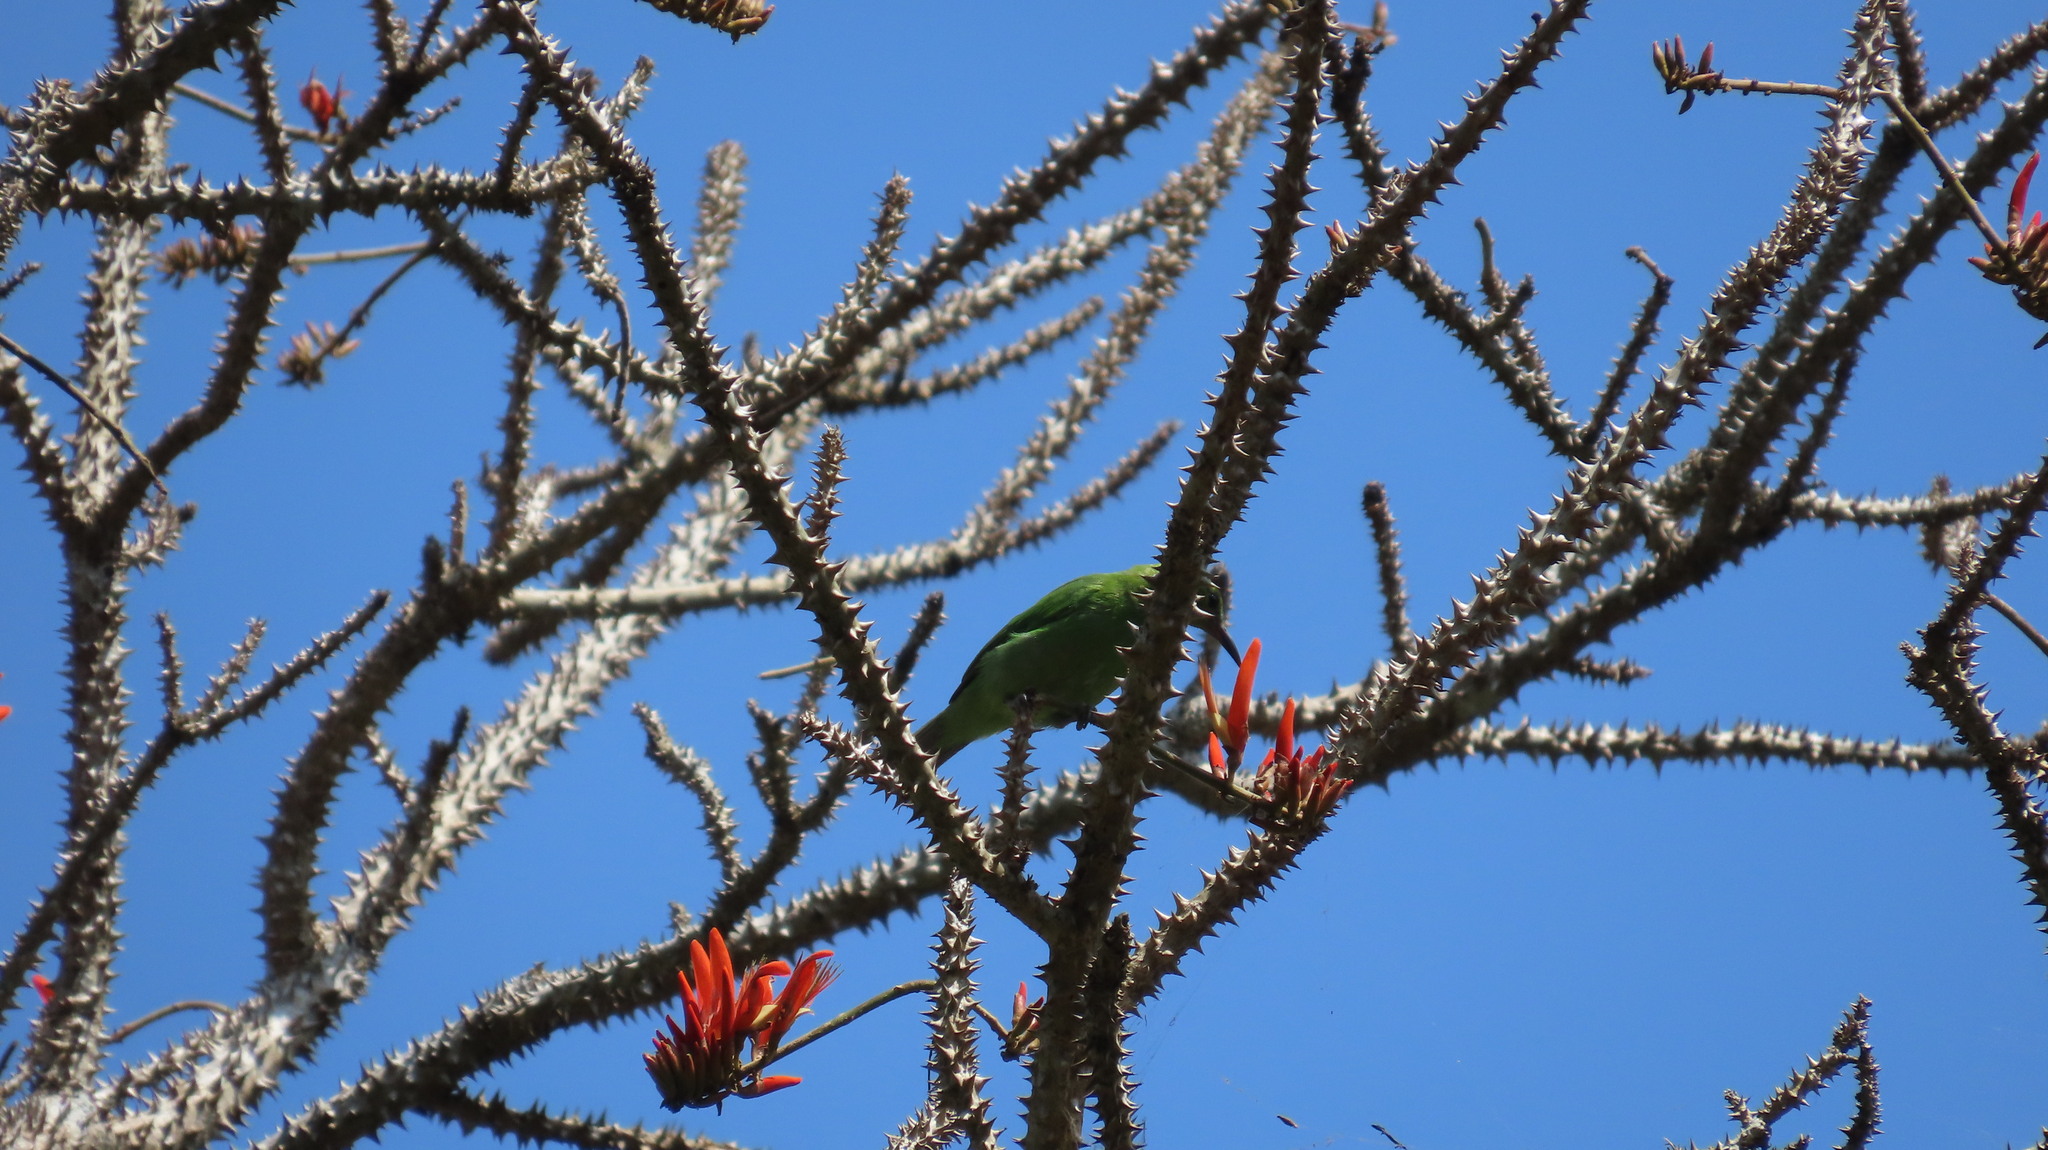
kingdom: Animalia
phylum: Chordata
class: Aves
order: Passeriformes
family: Chloropseidae
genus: Chloropsis
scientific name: Chloropsis aurifrons
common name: Golden-fronted leafbird
